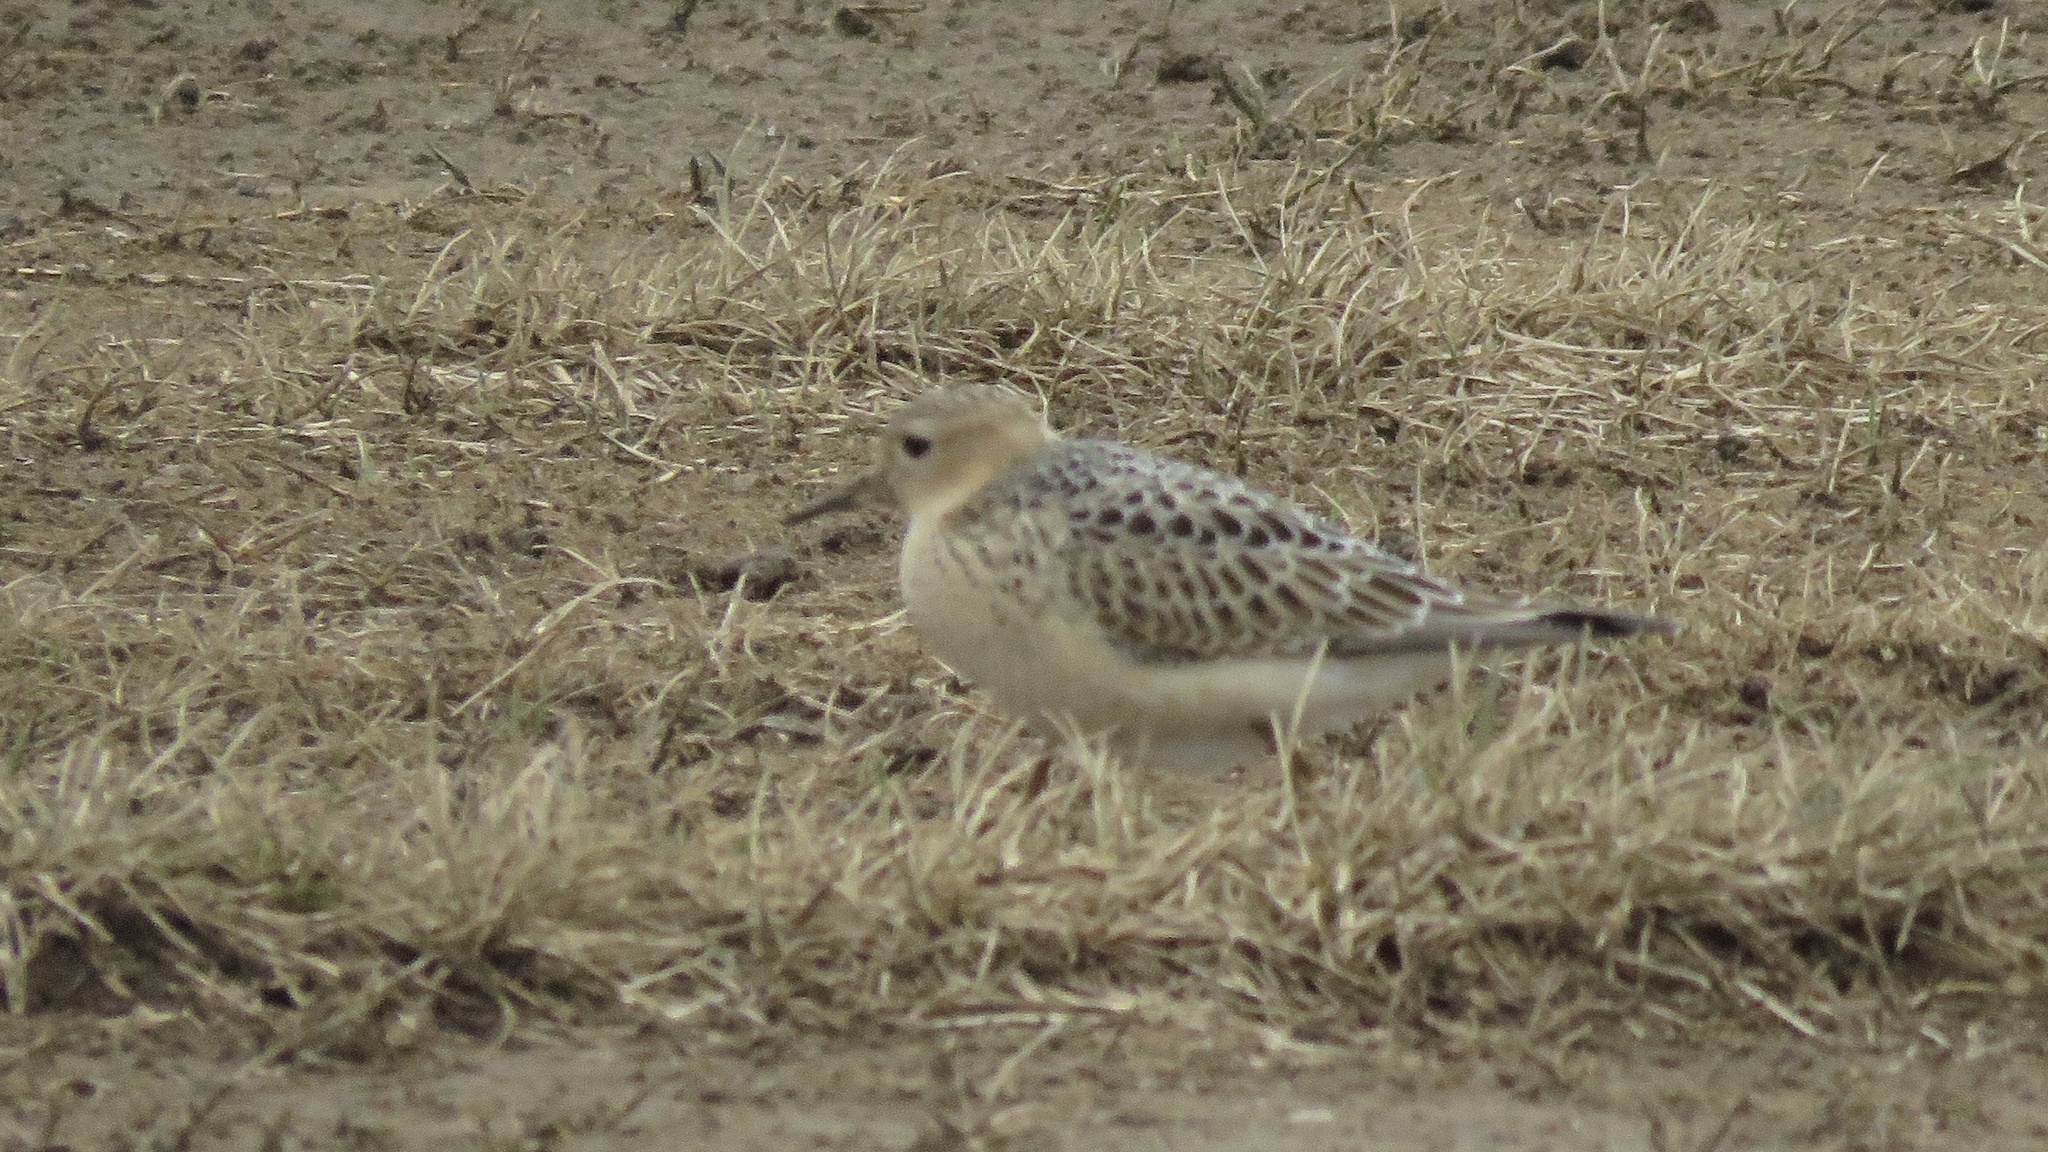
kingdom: Animalia
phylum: Chordata
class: Aves
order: Charadriiformes
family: Scolopacidae
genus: Calidris
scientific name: Calidris subruficollis
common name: Buff-breasted sandpiper
